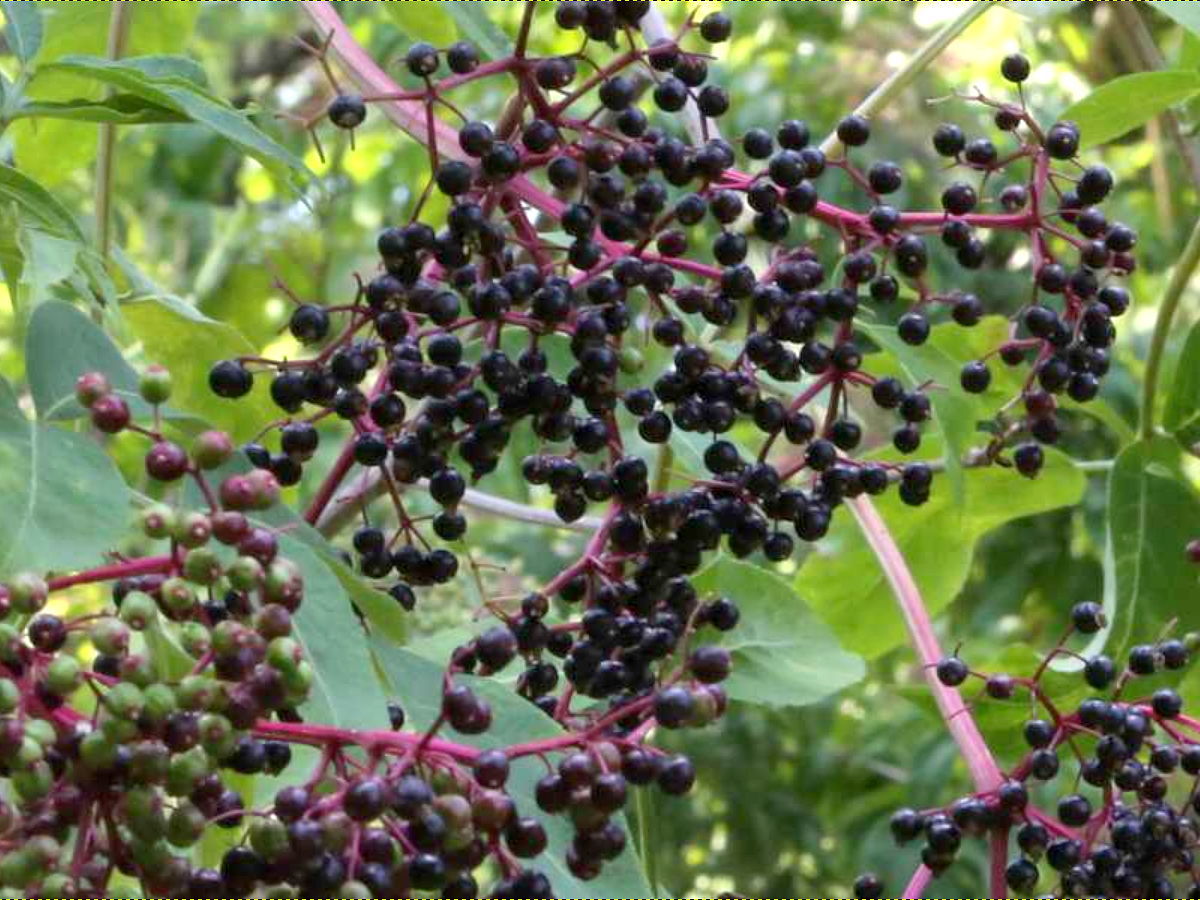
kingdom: Plantae
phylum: Tracheophyta
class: Magnoliopsida
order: Dipsacales
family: Viburnaceae
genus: Sambucus
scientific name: Sambucus canadensis
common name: American elder
